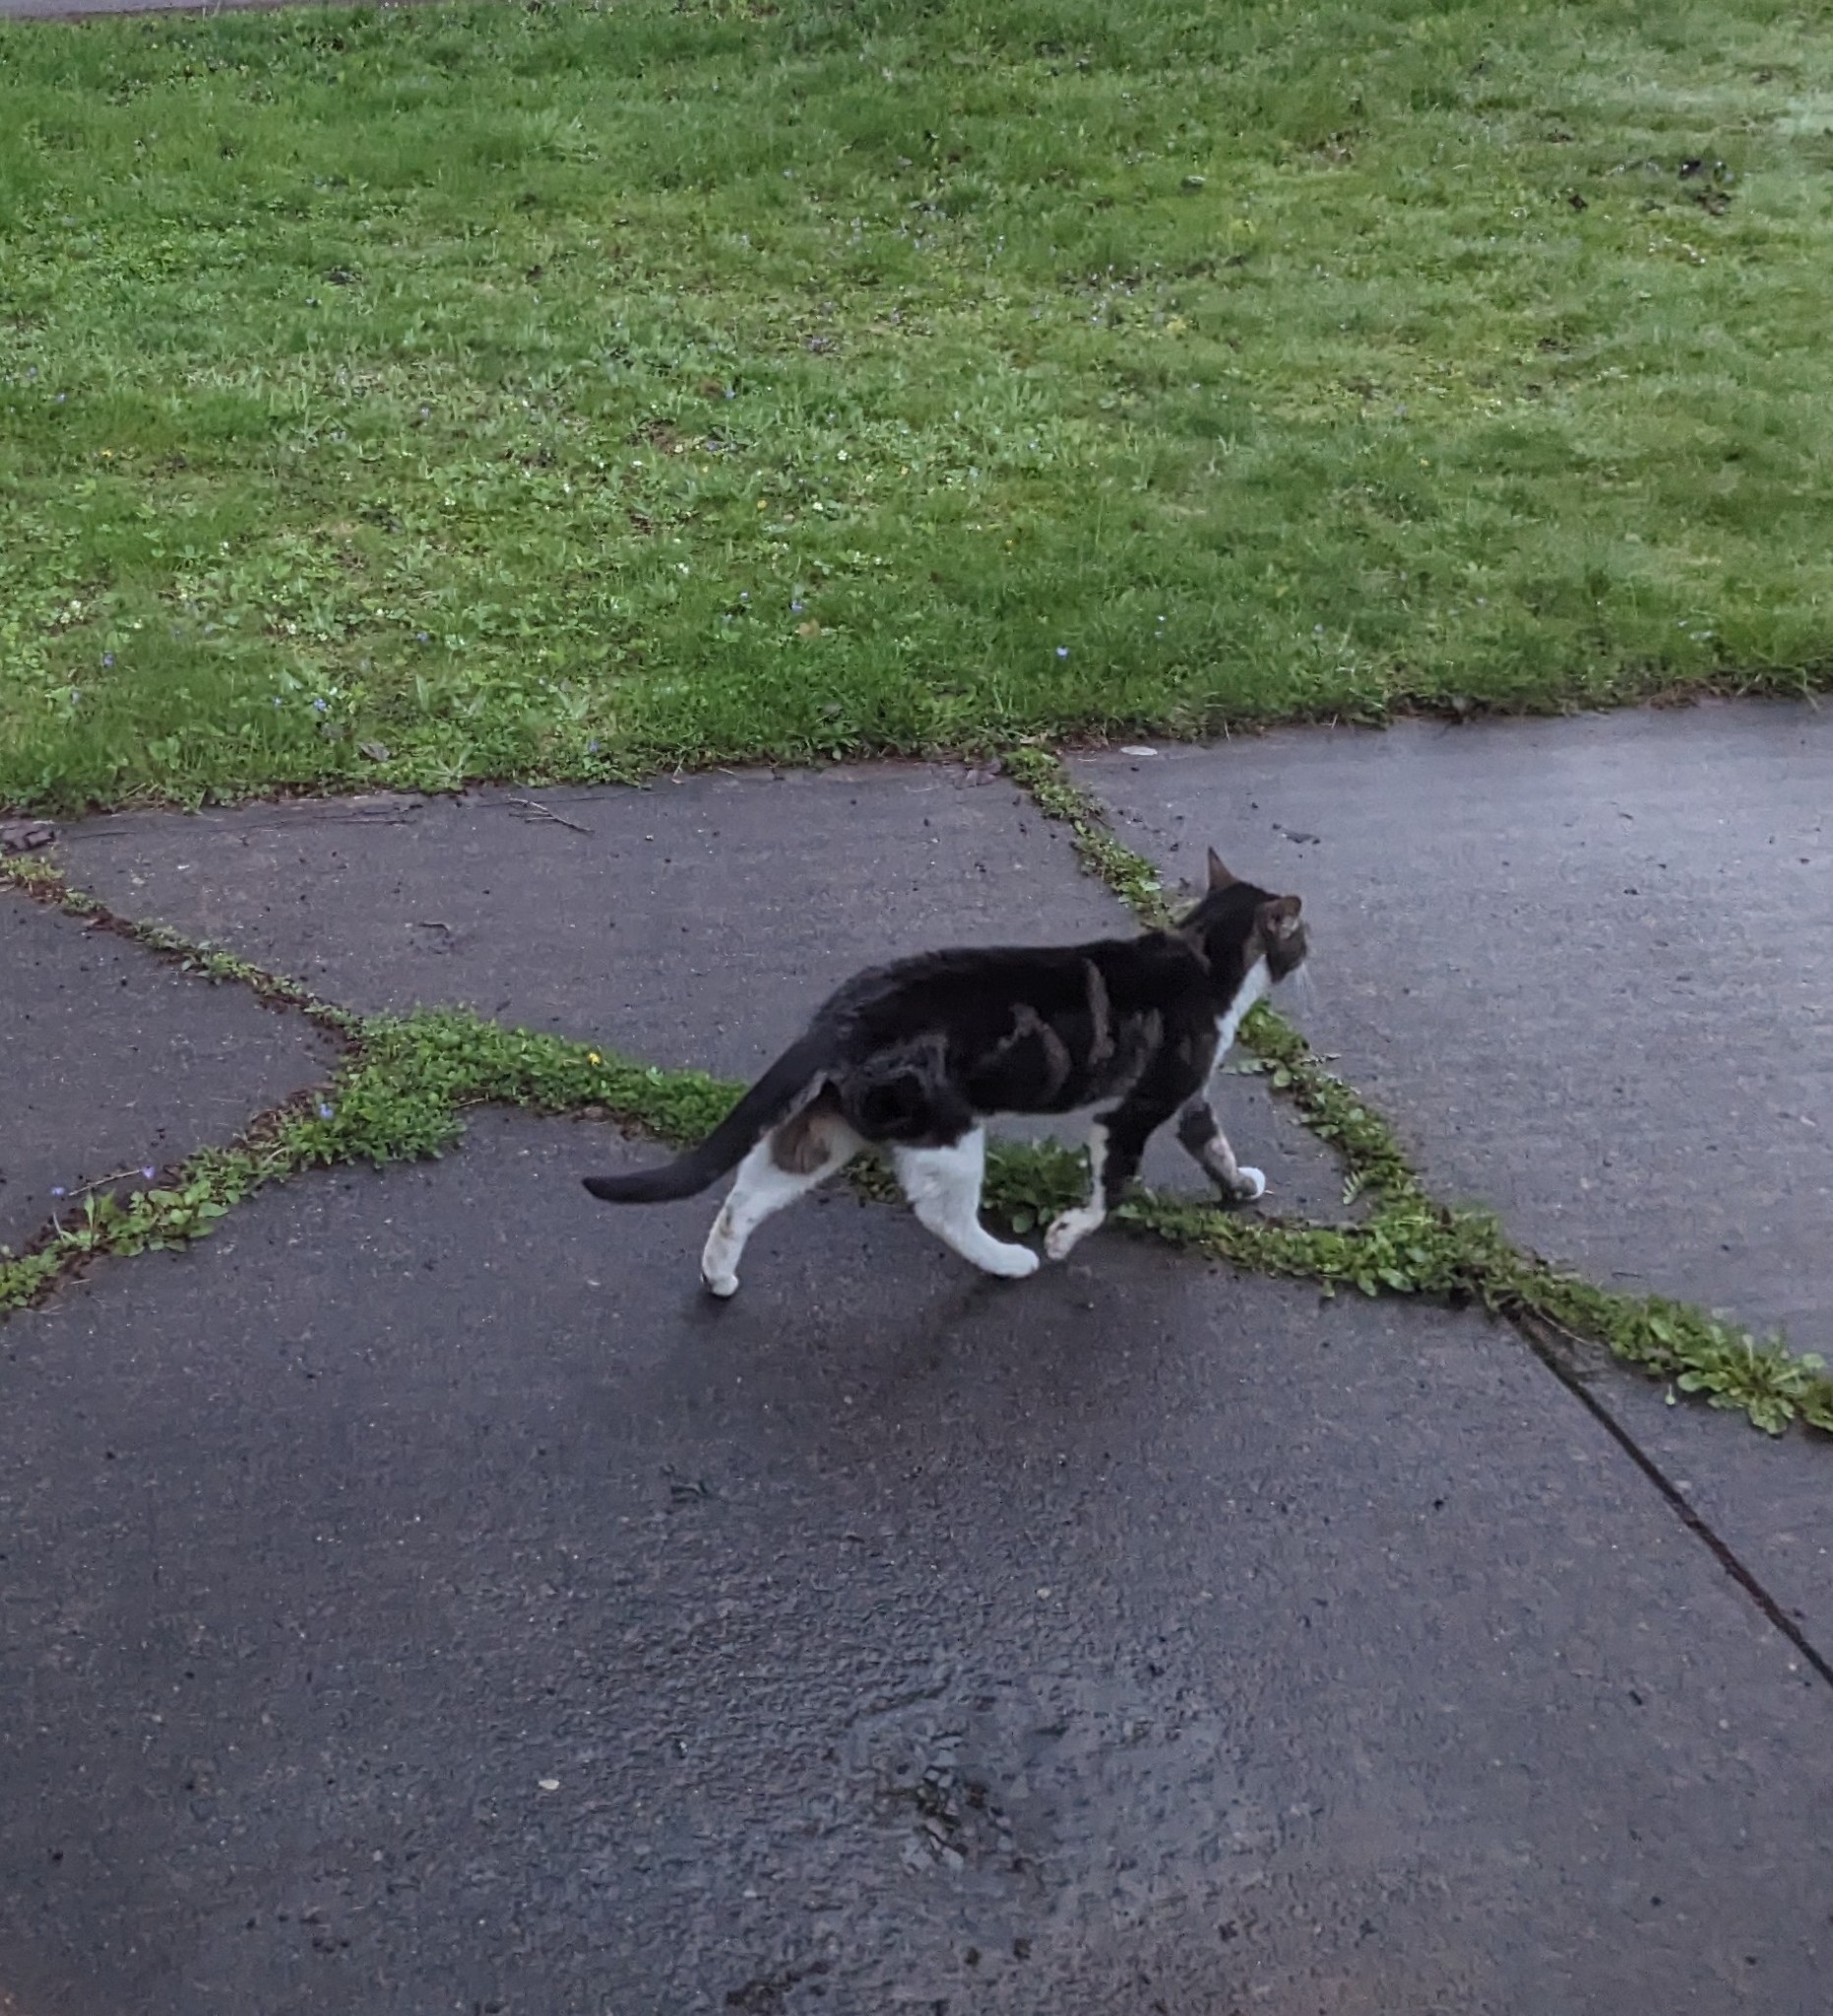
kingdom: Animalia
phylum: Chordata
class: Mammalia
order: Carnivora
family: Felidae
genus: Felis
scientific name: Felis catus
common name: Domestic cat
